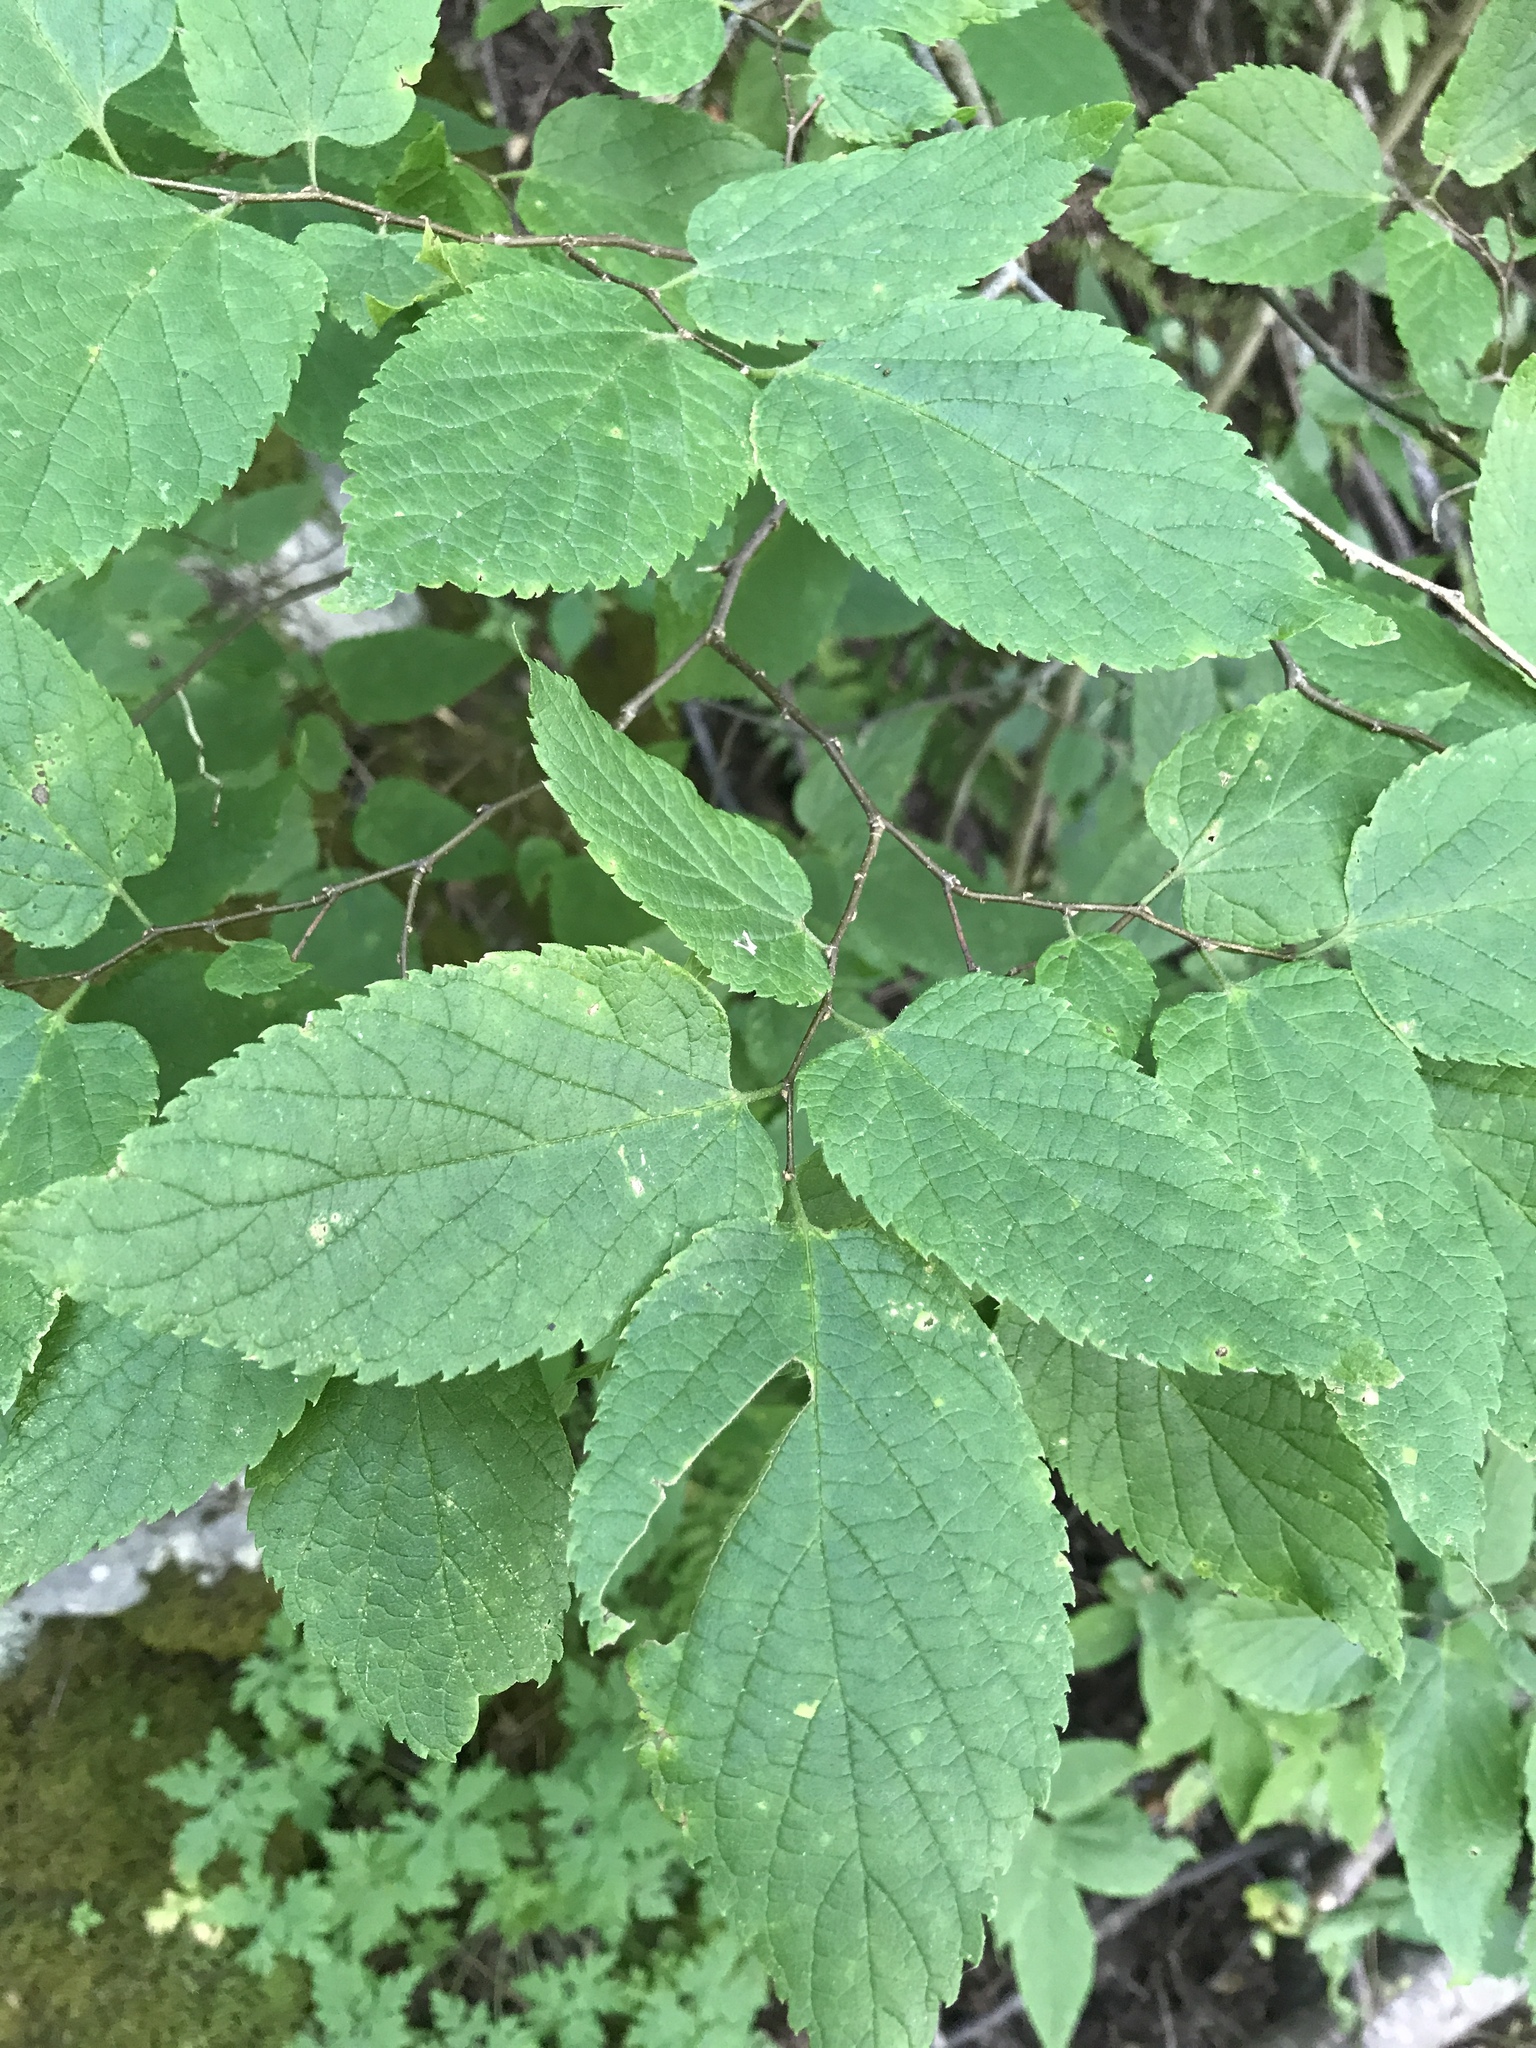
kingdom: Plantae
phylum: Tracheophyta
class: Magnoliopsida
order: Rosales
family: Cannabaceae
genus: Celtis
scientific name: Celtis occidentalis
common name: Common hackberry
